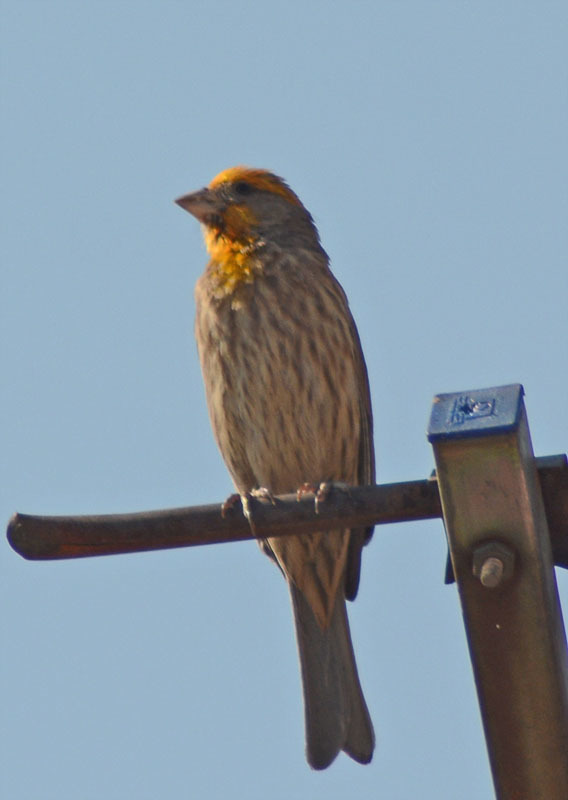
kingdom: Animalia
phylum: Chordata
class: Aves
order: Passeriformes
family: Fringillidae
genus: Haemorhous
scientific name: Haemorhous mexicanus
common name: House finch
